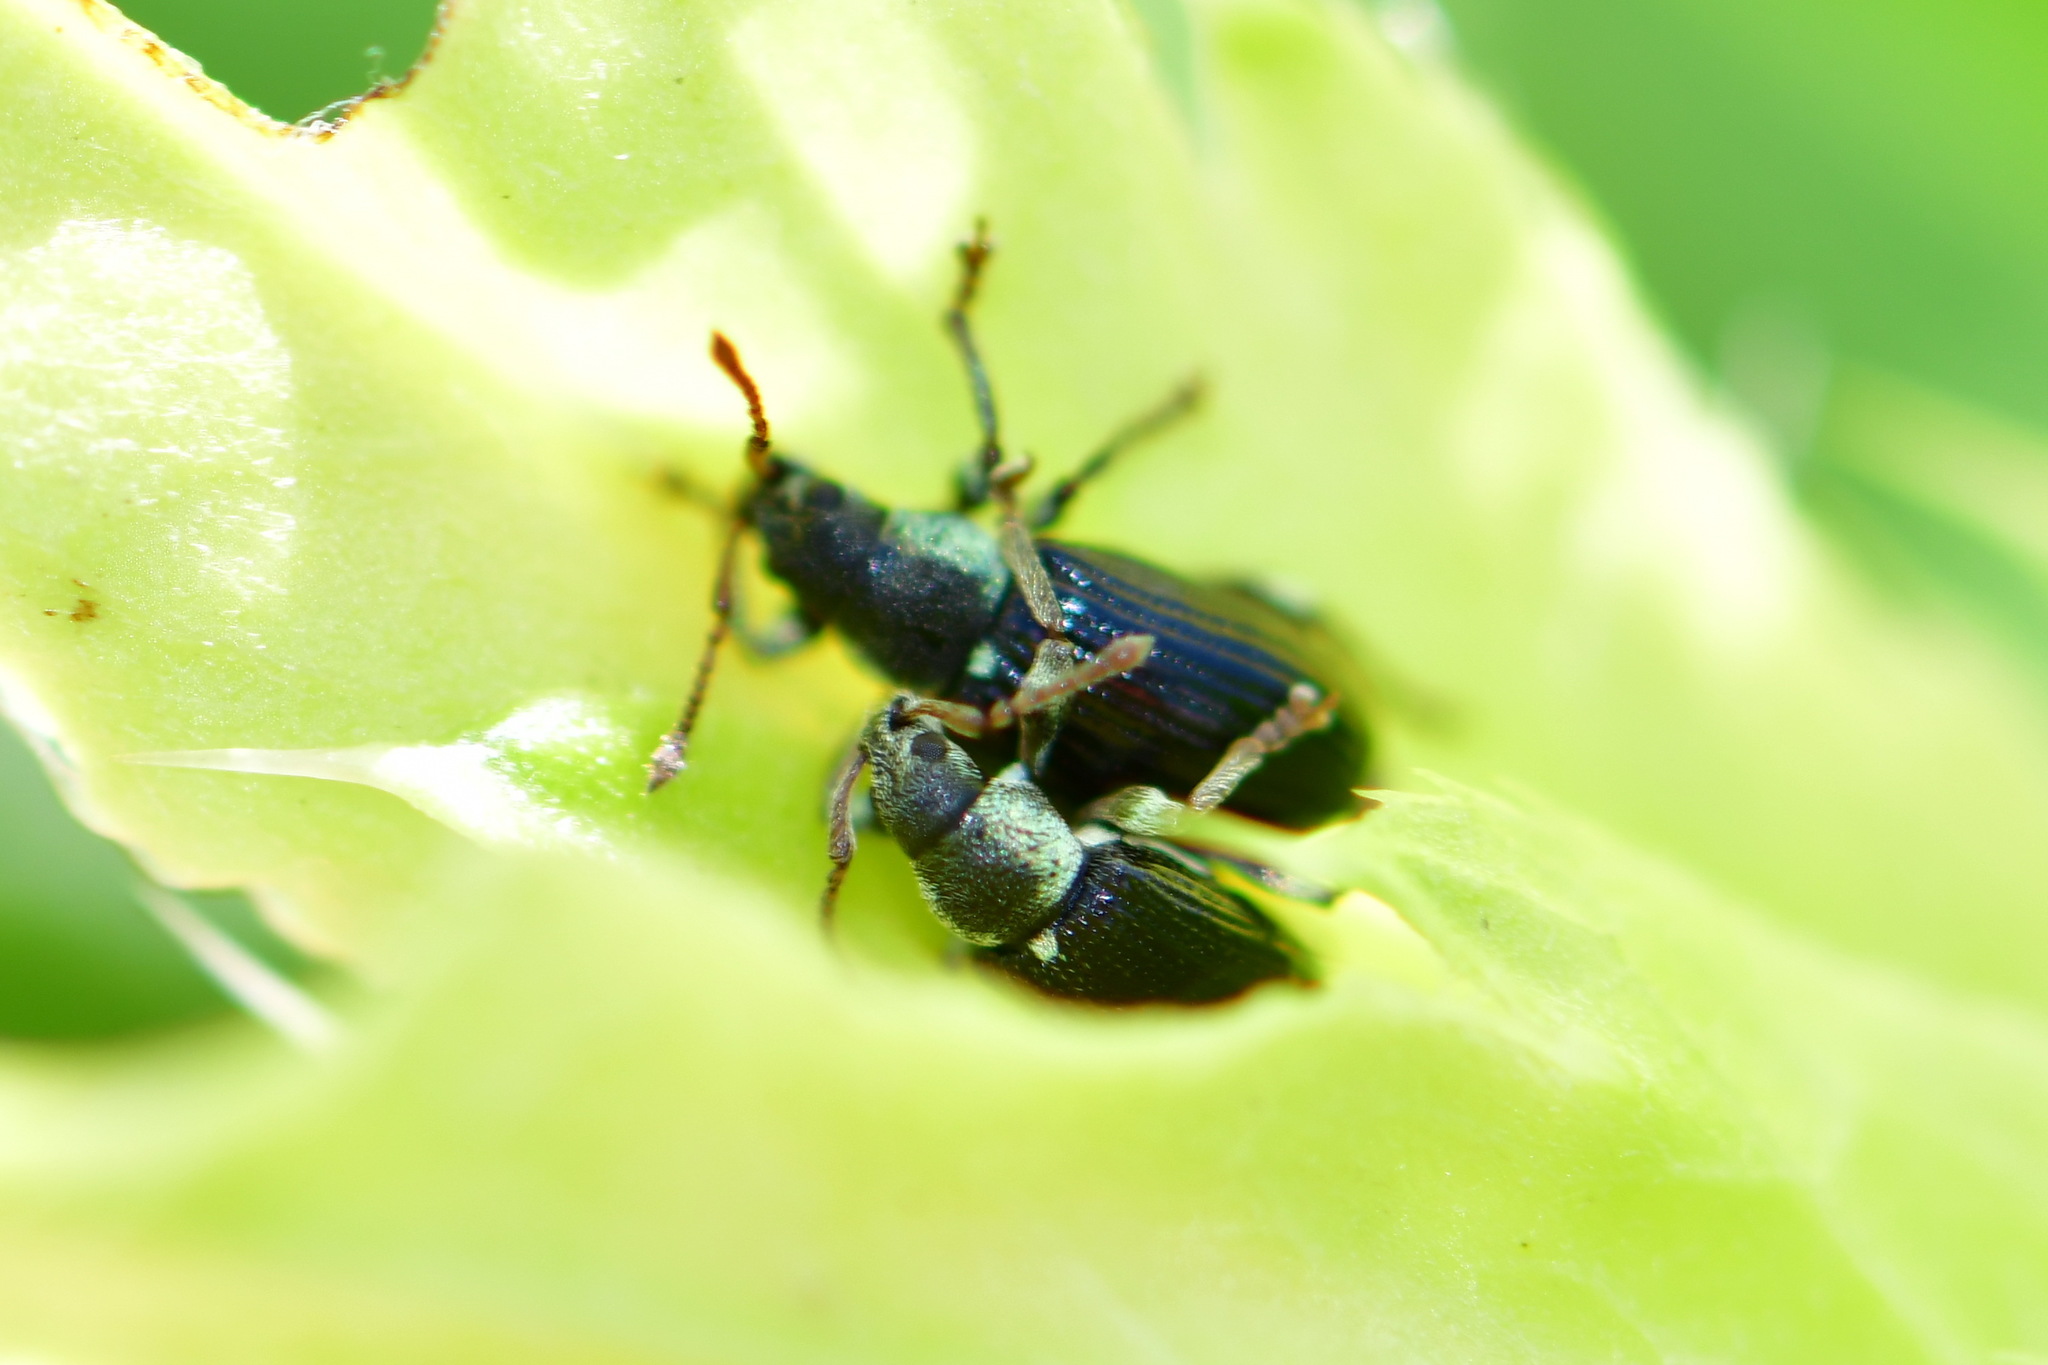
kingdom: Animalia
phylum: Arthropoda
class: Insecta
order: Coleoptera
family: Curculionidae
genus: Phyllobius
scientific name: Phyllobius viridicollis
